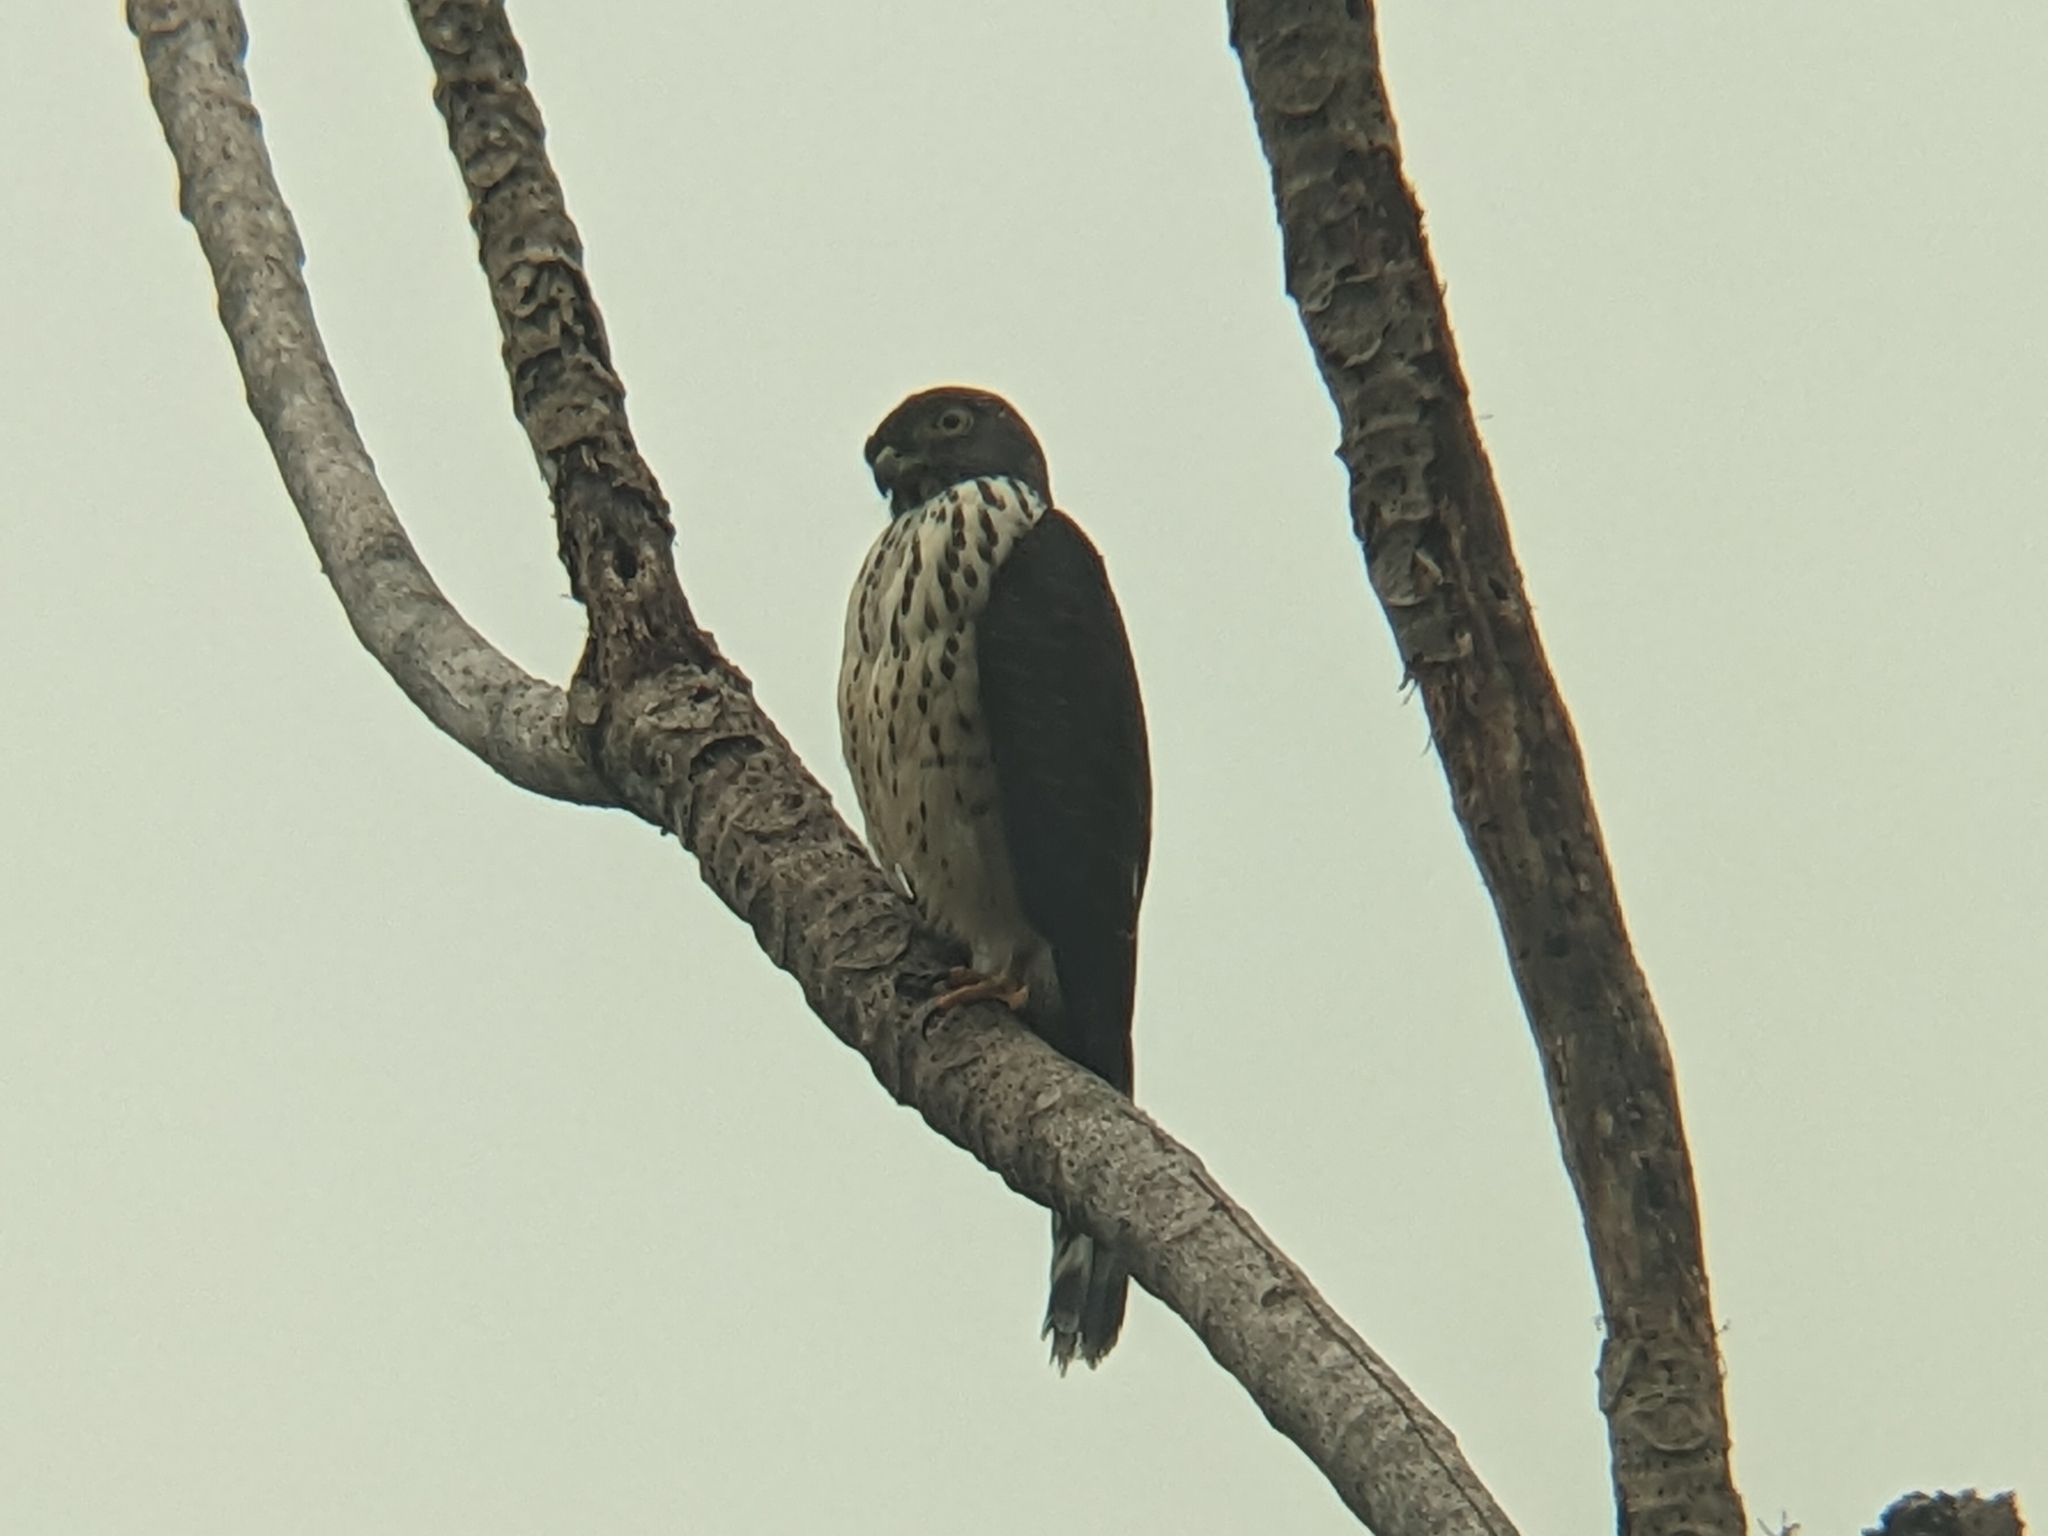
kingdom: Animalia
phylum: Chordata
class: Aves
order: Accipitriformes
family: Accipitridae
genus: Harpagus
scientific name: Harpagus bidentatus
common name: Double-toothed kite
